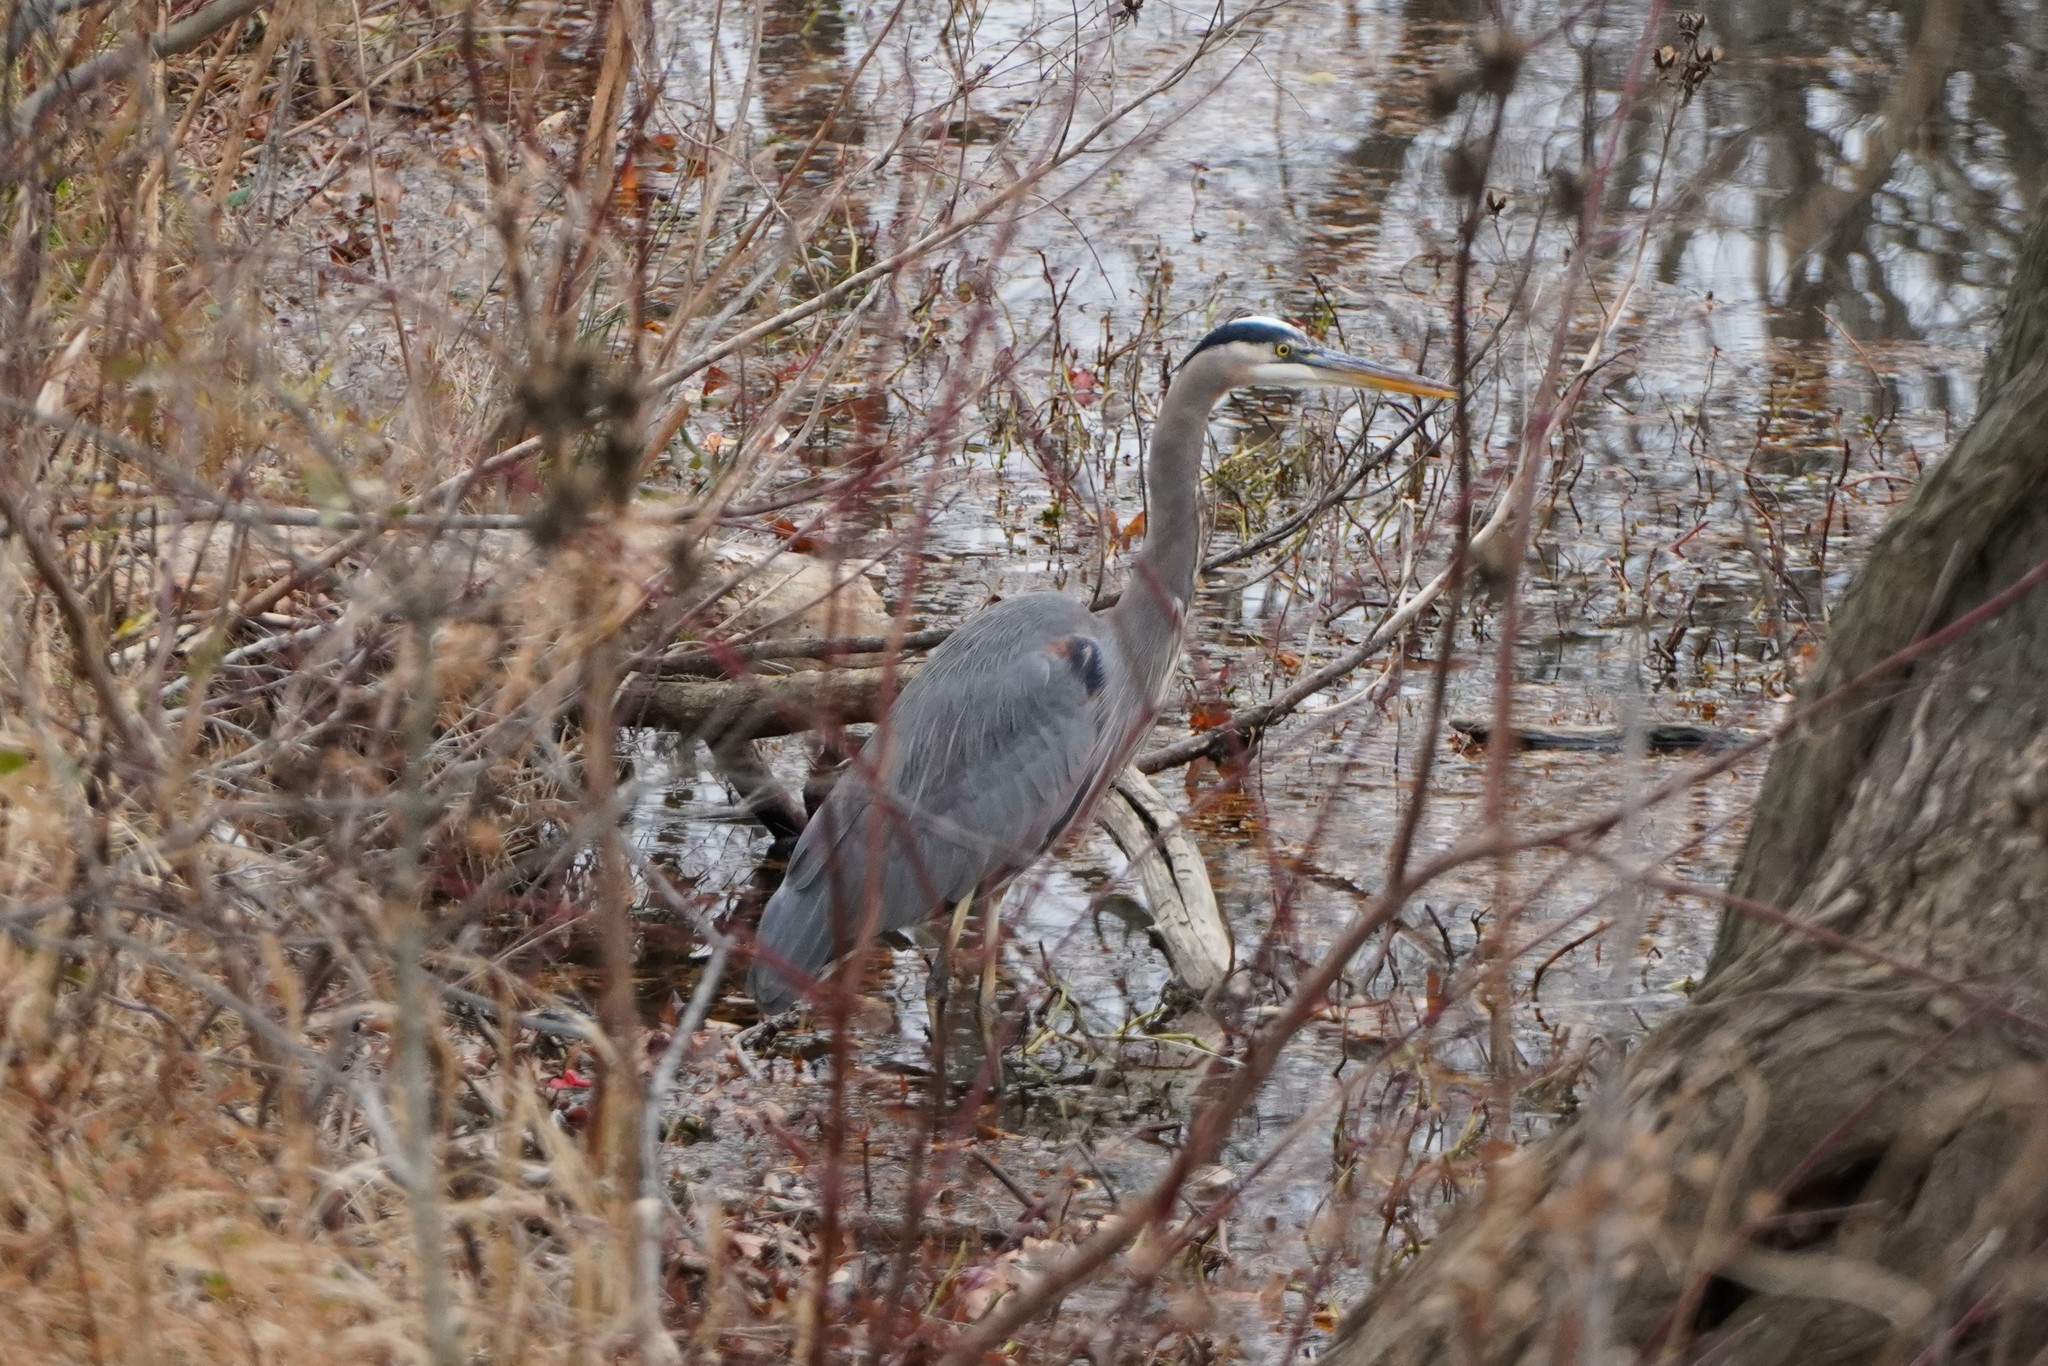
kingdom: Animalia
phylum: Chordata
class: Aves
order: Pelecaniformes
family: Ardeidae
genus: Ardea
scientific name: Ardea herodias
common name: Great blue heron
